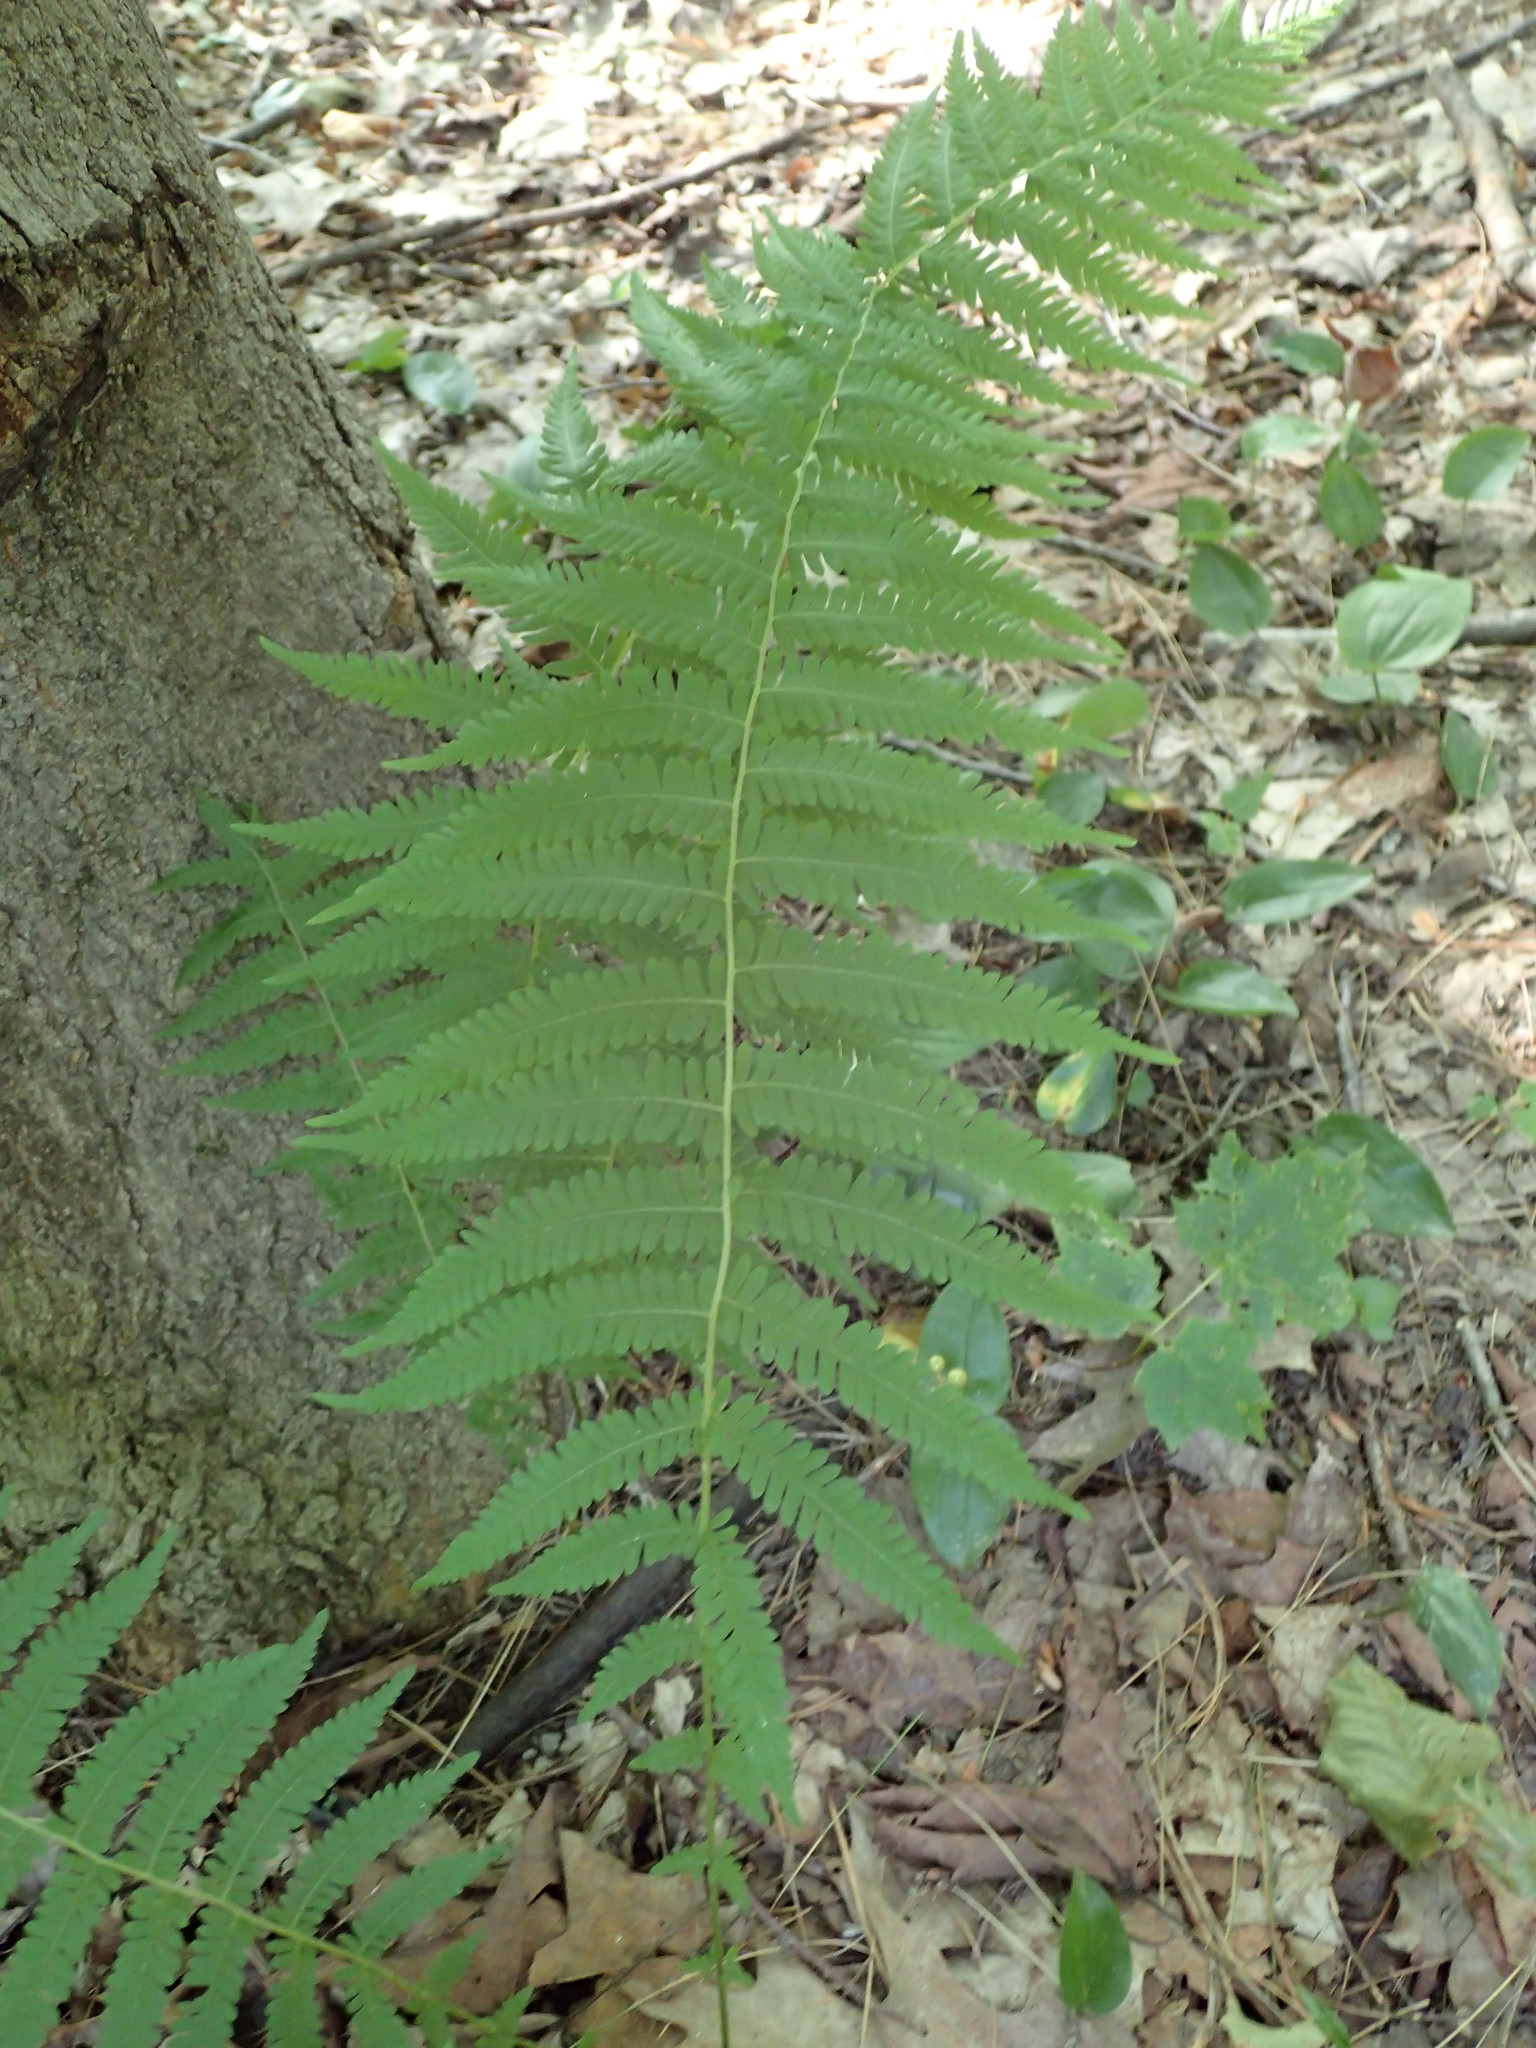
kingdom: Plantae
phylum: Tracheophyta
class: Polypodiopsida
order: Polypodiales
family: Thelypteridaceae
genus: Amauropelta
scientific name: Amauropelta noveboracensis
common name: New york fern
